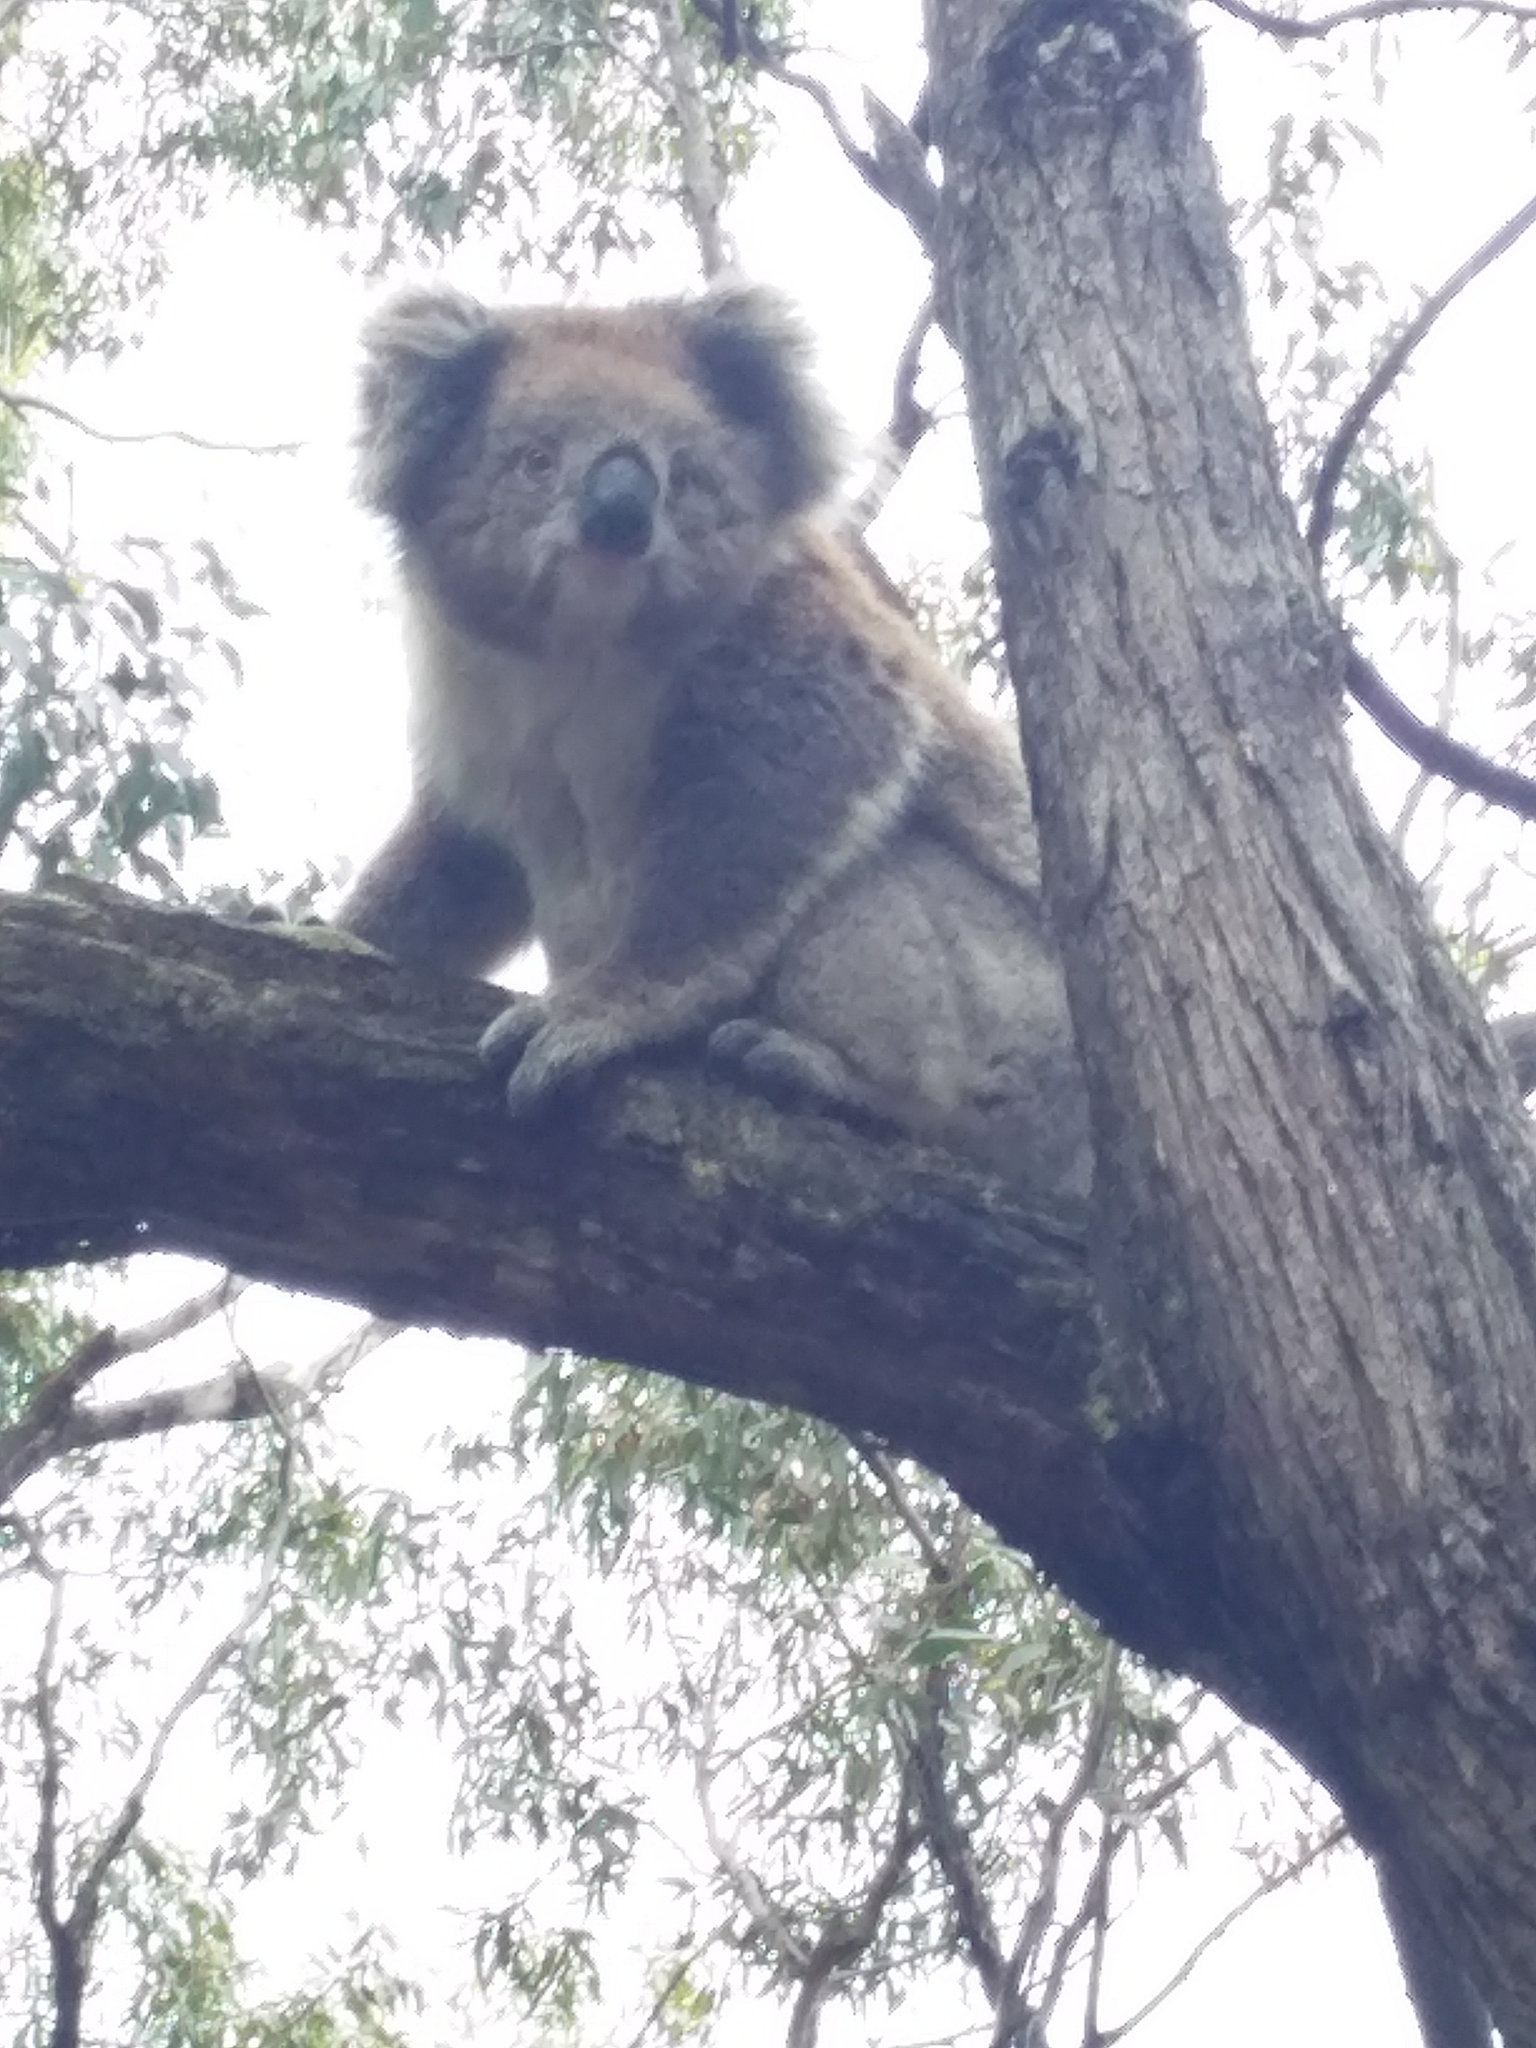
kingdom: Animalia
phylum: Chordata
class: Mammalia
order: Diprotodontia
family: Phascolarctidae
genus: Phascolarctos
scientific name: Phascolarctos cinereus
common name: Koala
